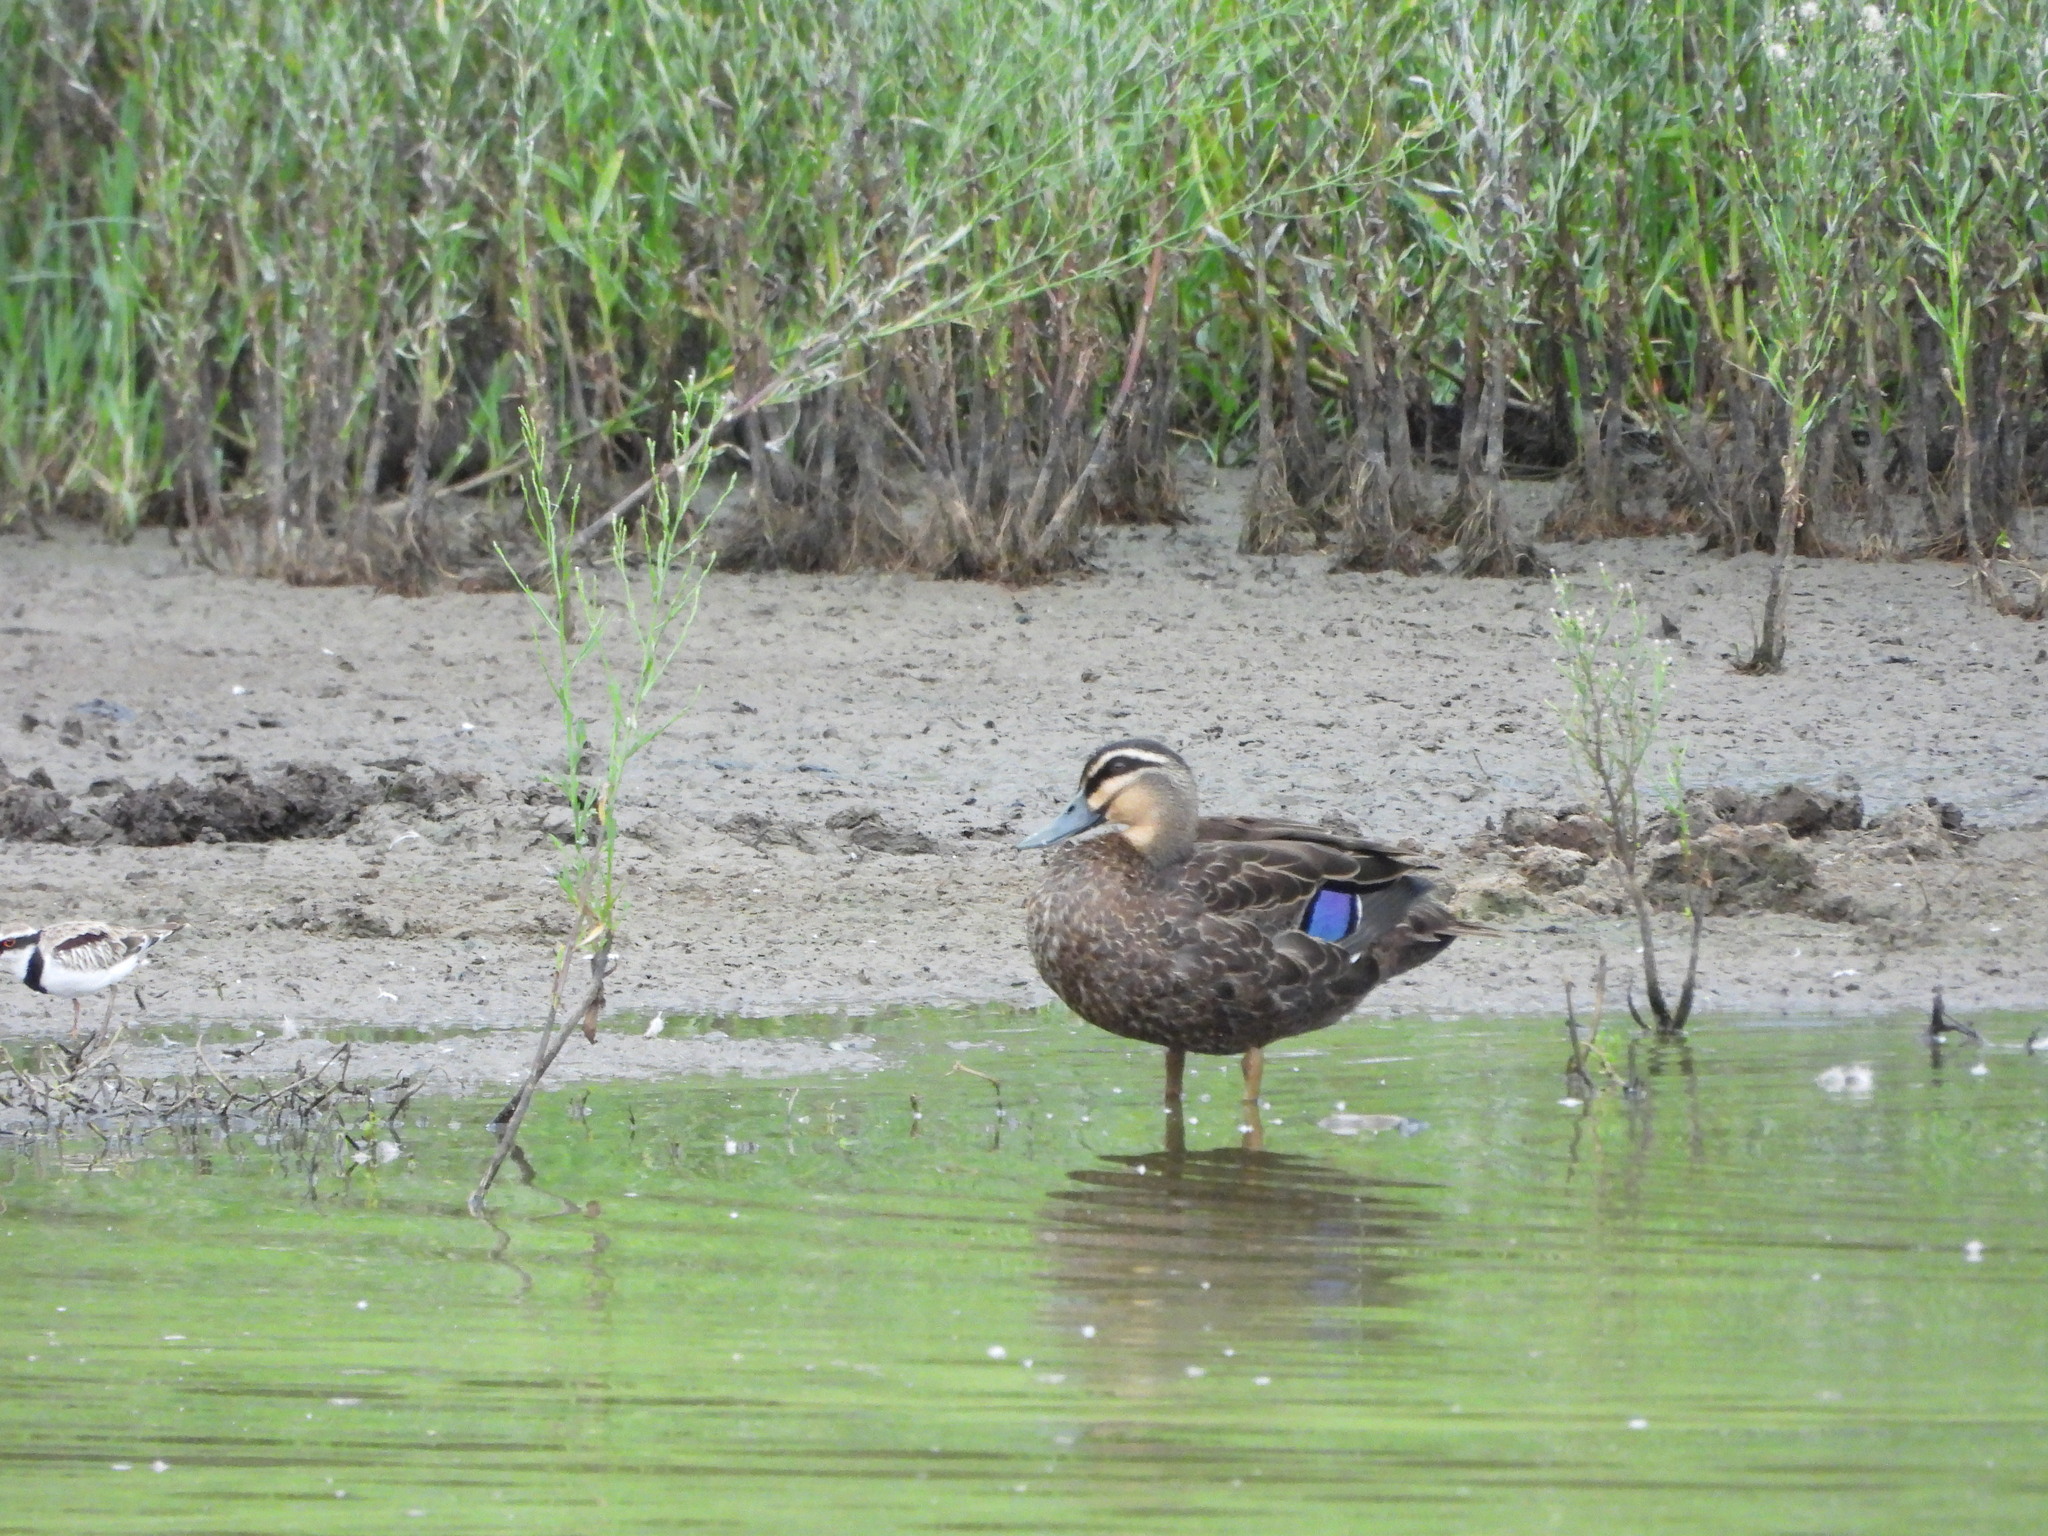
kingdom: Animalia
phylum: Chordata
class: Aves
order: Anseriformes
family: Anatidae
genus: Anas
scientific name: Anas superciliosa
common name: Pacific black duck
